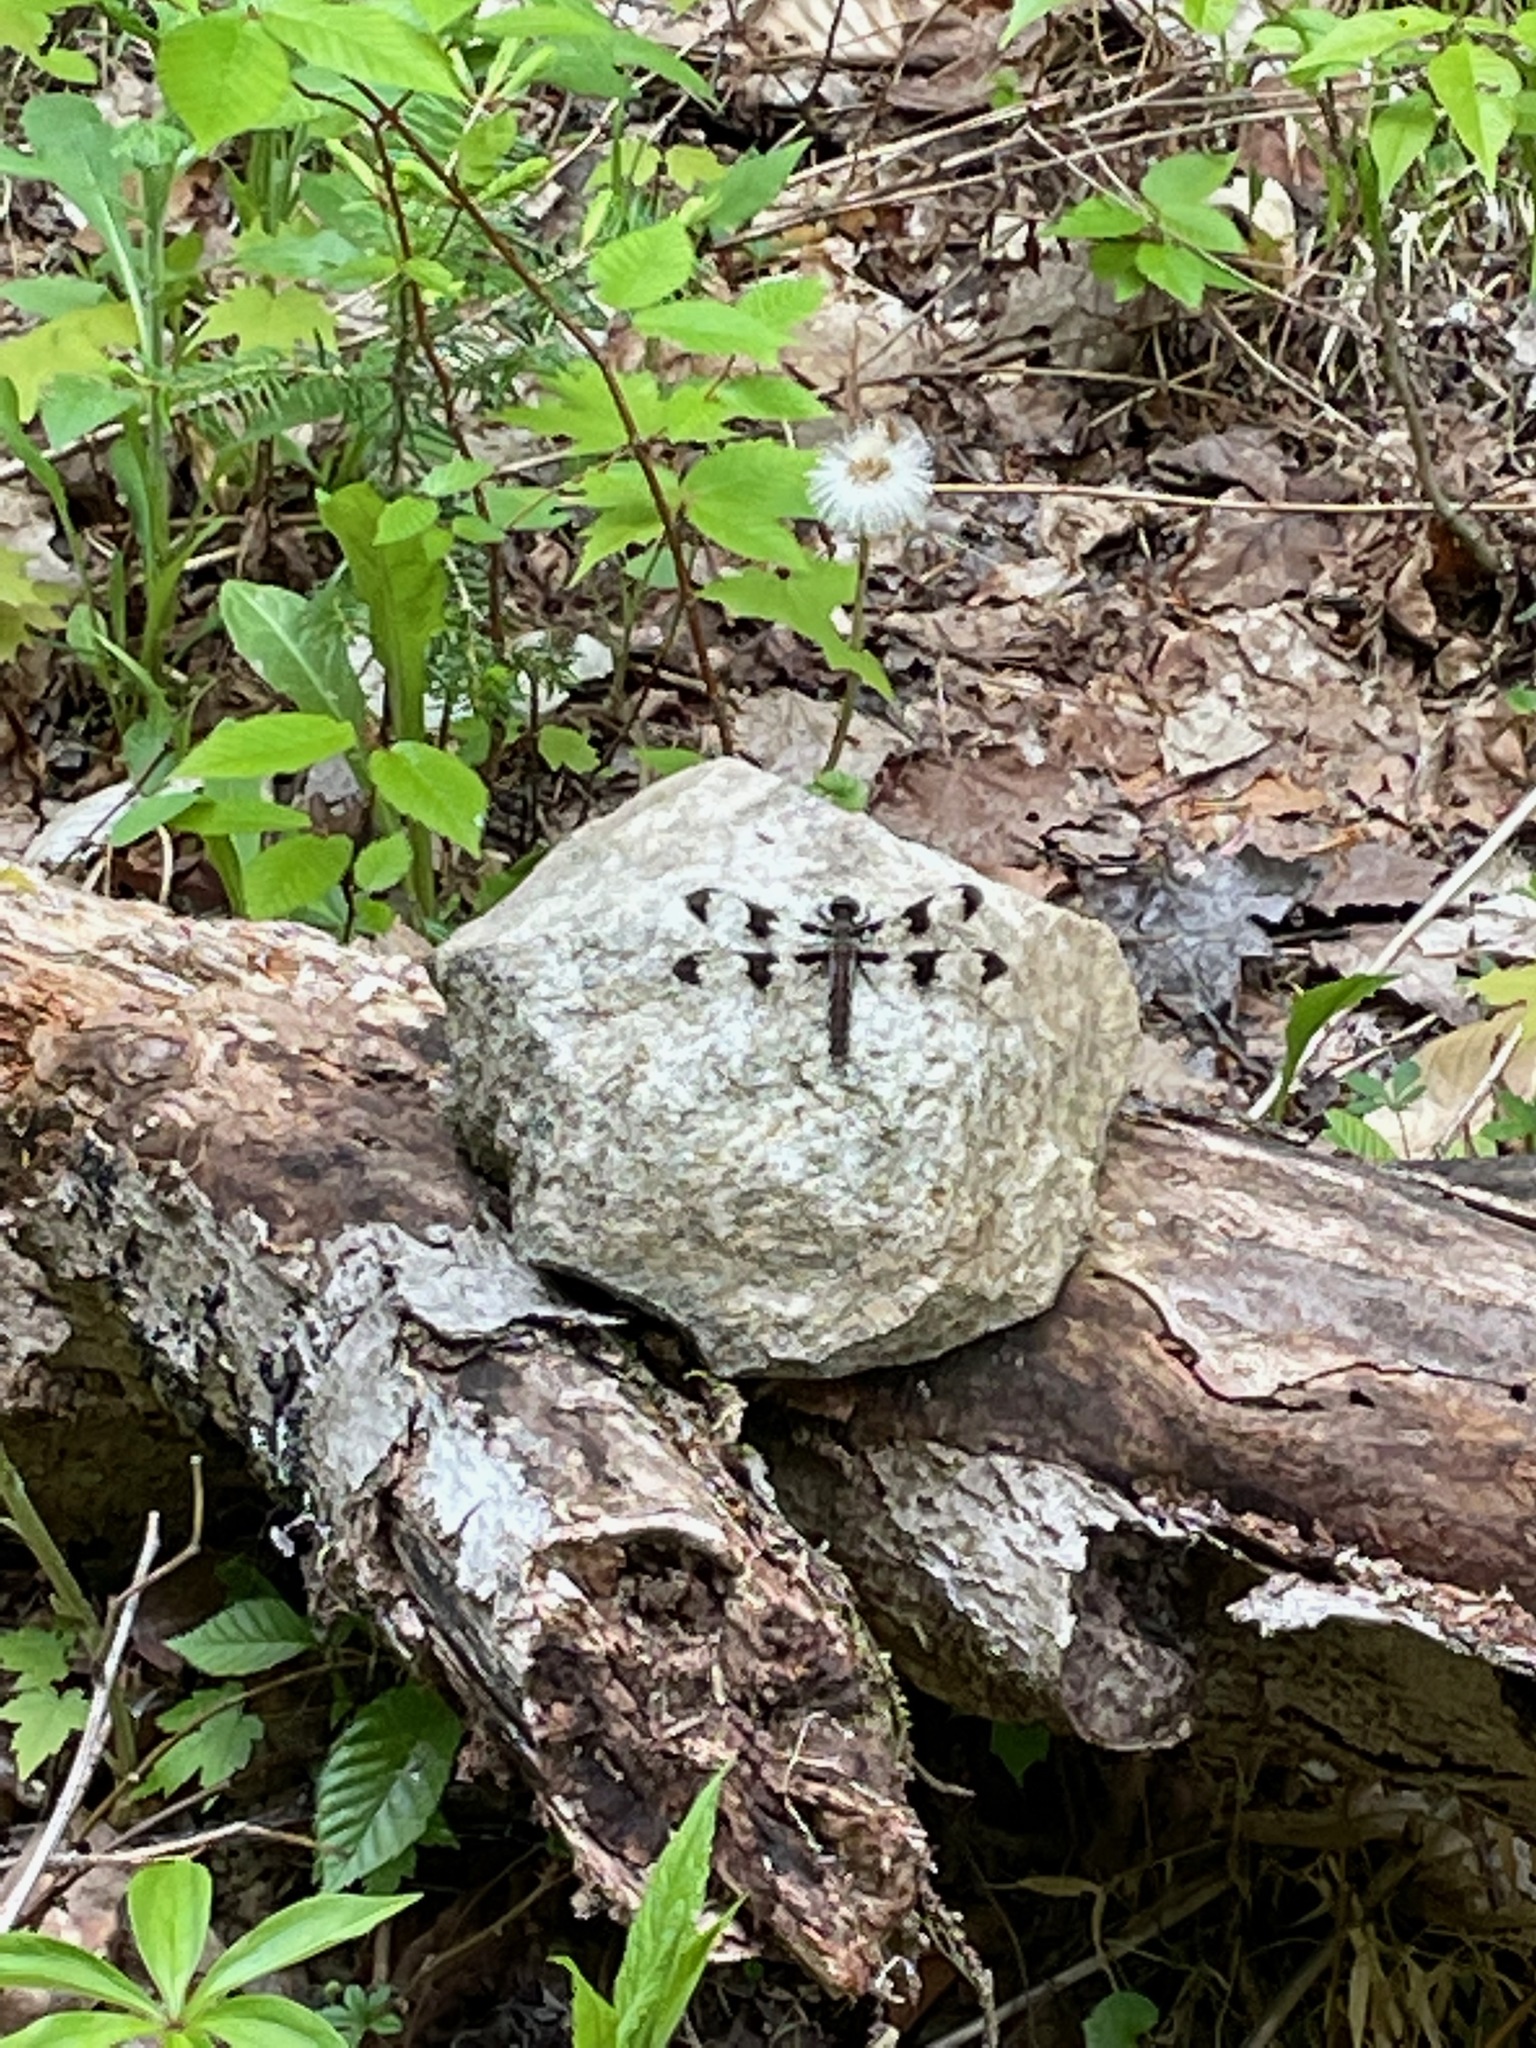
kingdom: Animalia
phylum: Arthropoda
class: Insecta
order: Odonata
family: Libellulidae
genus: Plathemis
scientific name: Plathemis lydia
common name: Common whitetail
